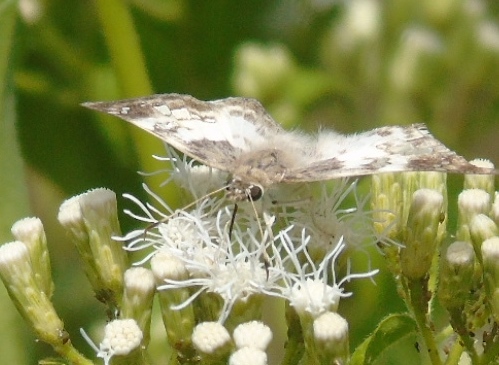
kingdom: Animalia
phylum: Arthropoda
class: Insecta
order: Lepidoptera
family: Hesperiidae
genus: Polyctor
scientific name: Polyctor cleta
